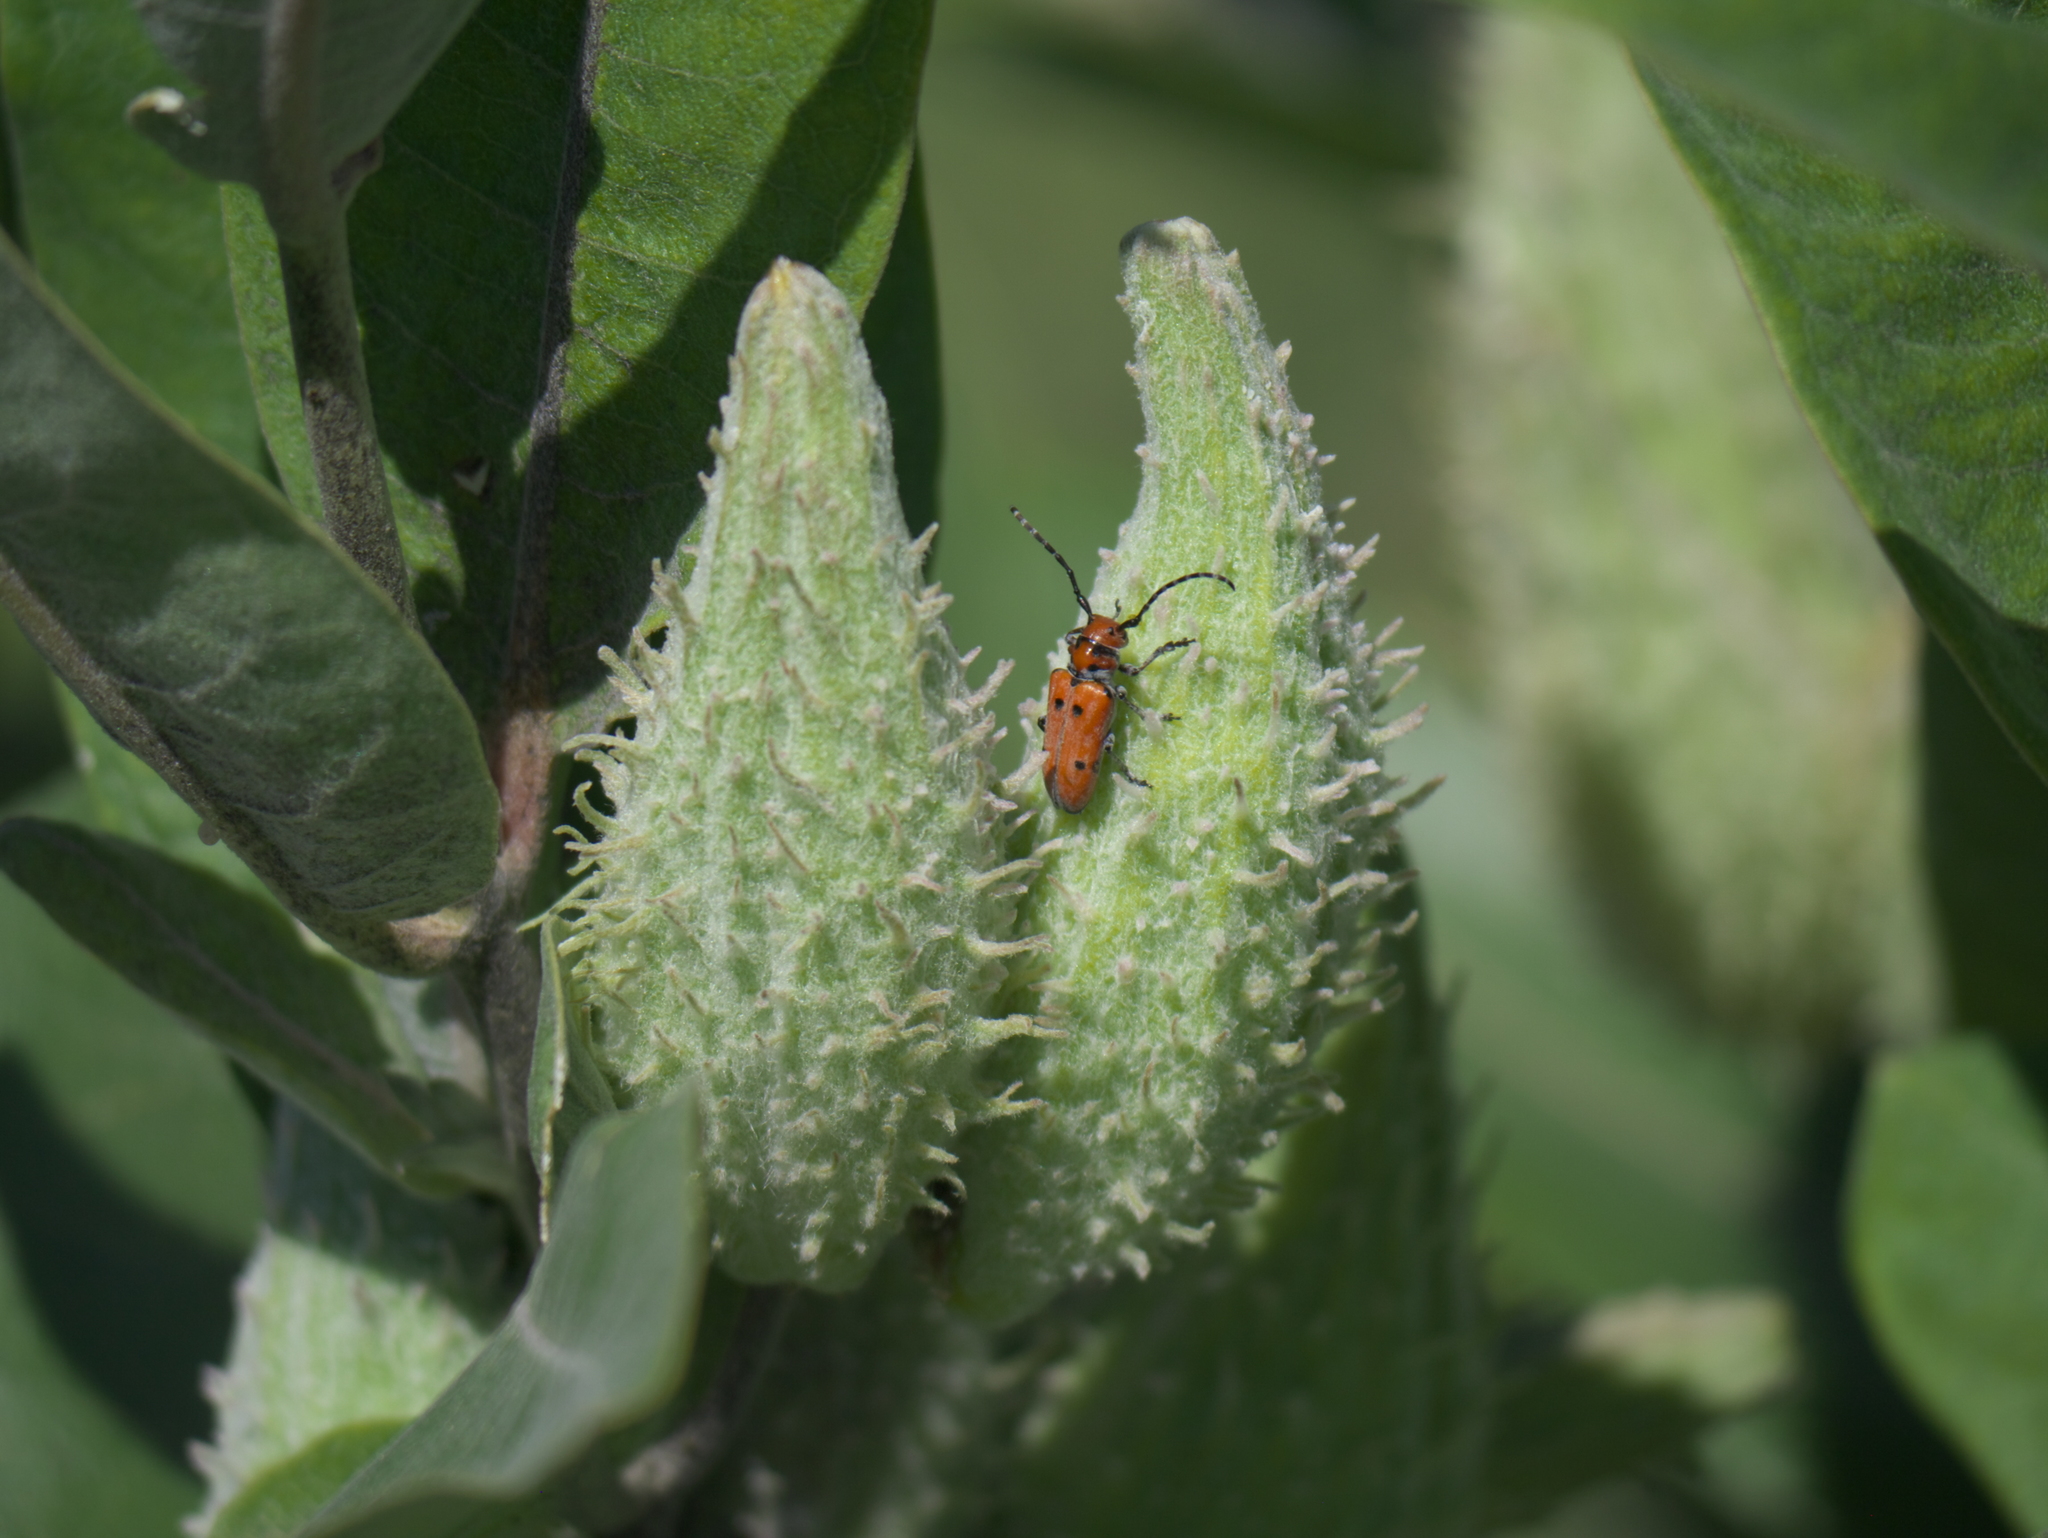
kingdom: Plantae
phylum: Tracheophyta
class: Magnoliopsida
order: Gentianales
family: Apocynaceae
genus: Asclepias
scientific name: Asclepias speciosa
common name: Showy milkweed
